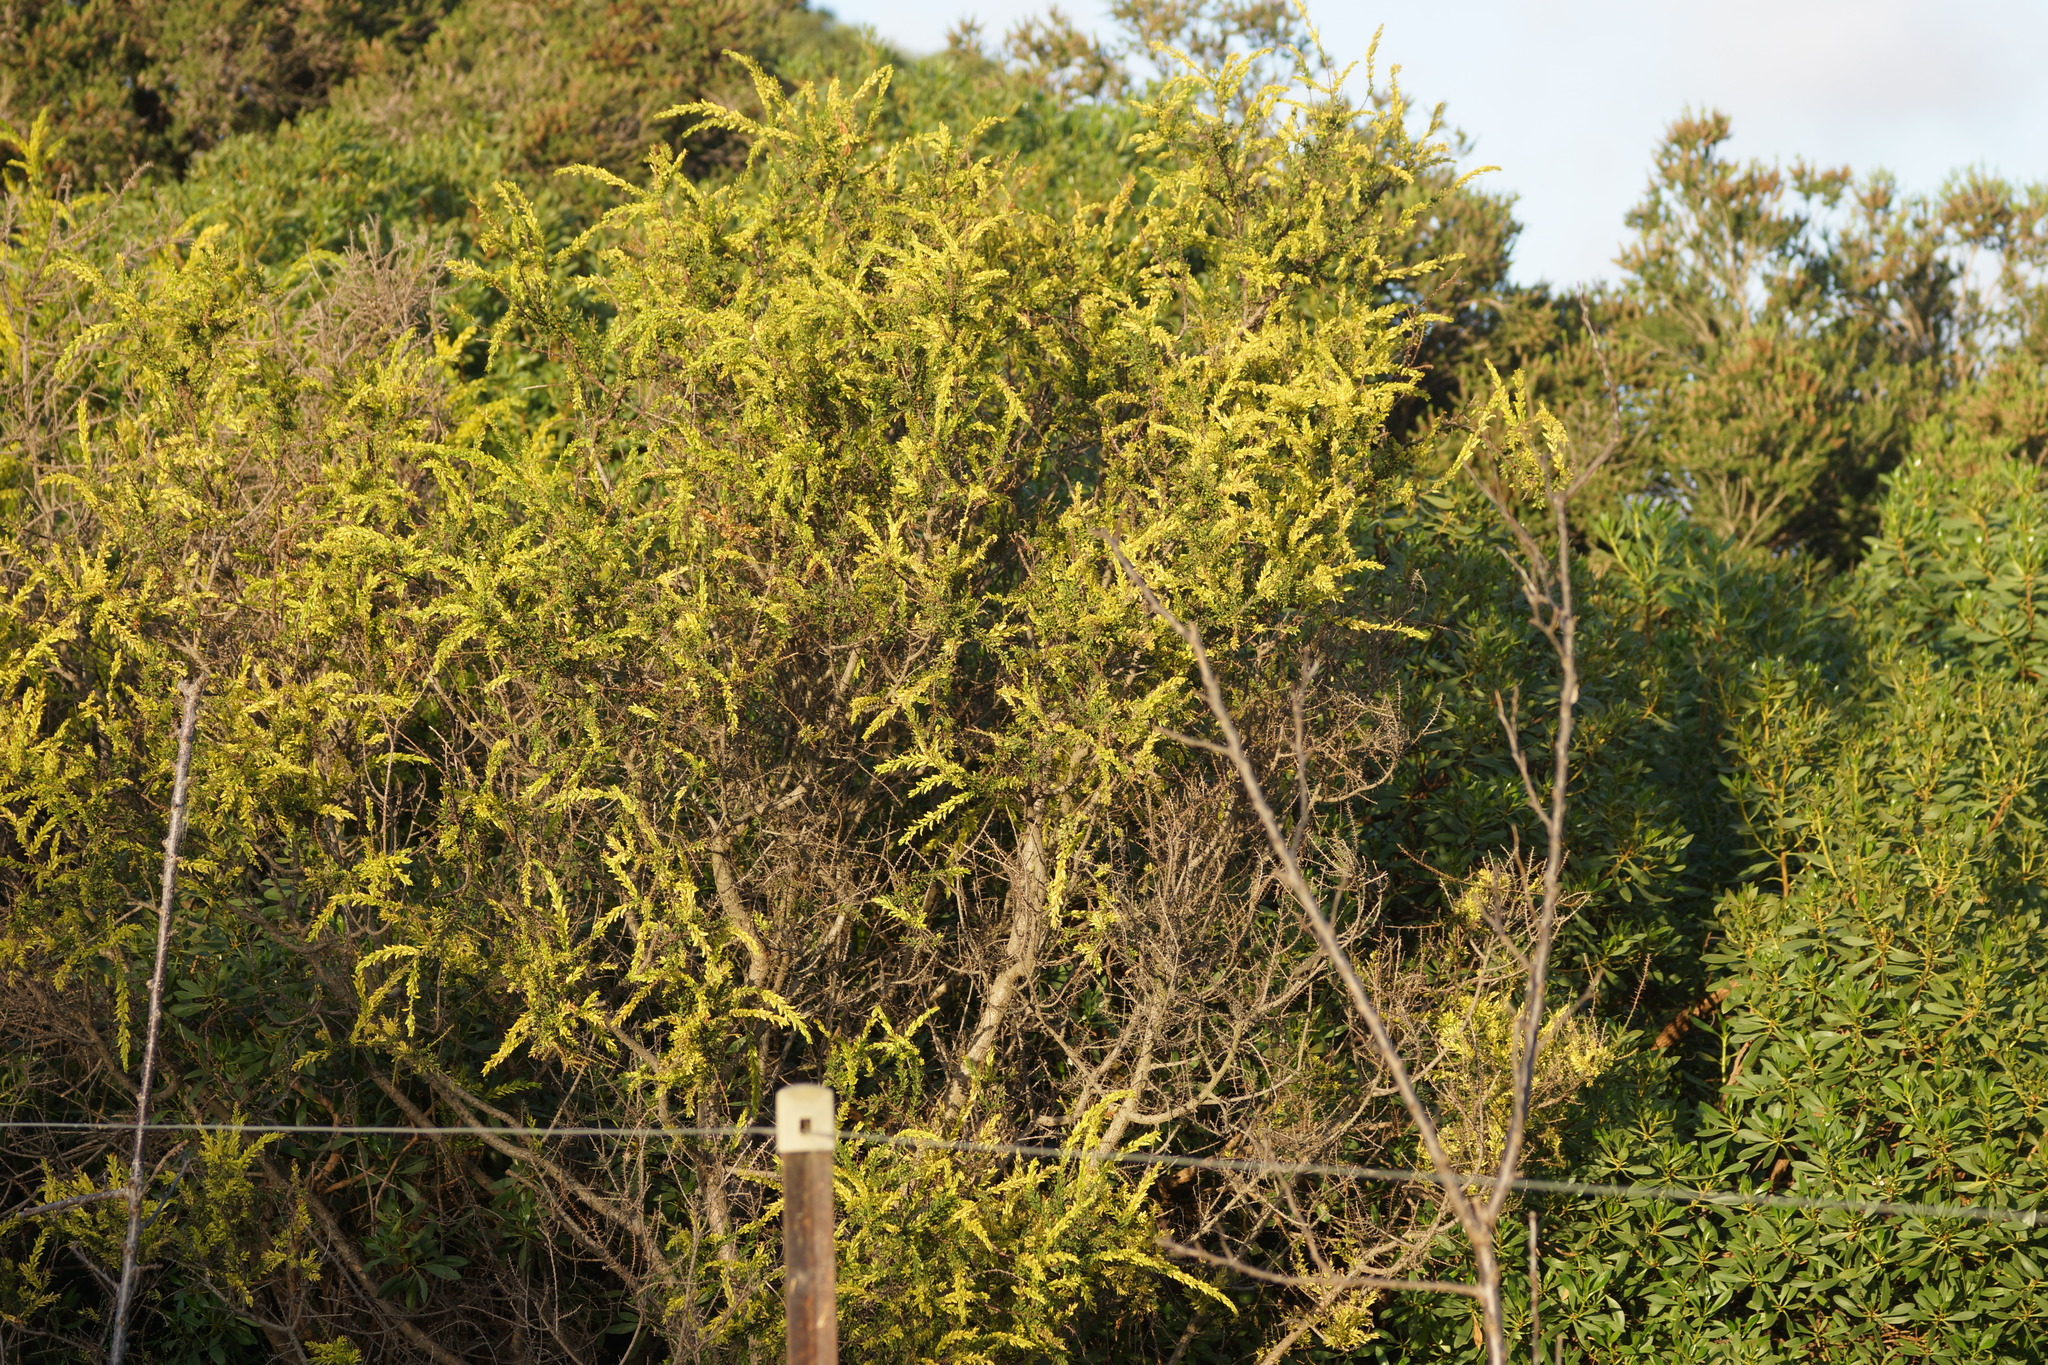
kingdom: Plantae
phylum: Tracheophyta
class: Magnoliopsida
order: Fabales
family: Fabaceae
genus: Acacia
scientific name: Acacia paradoxa
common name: Paradox acacia
